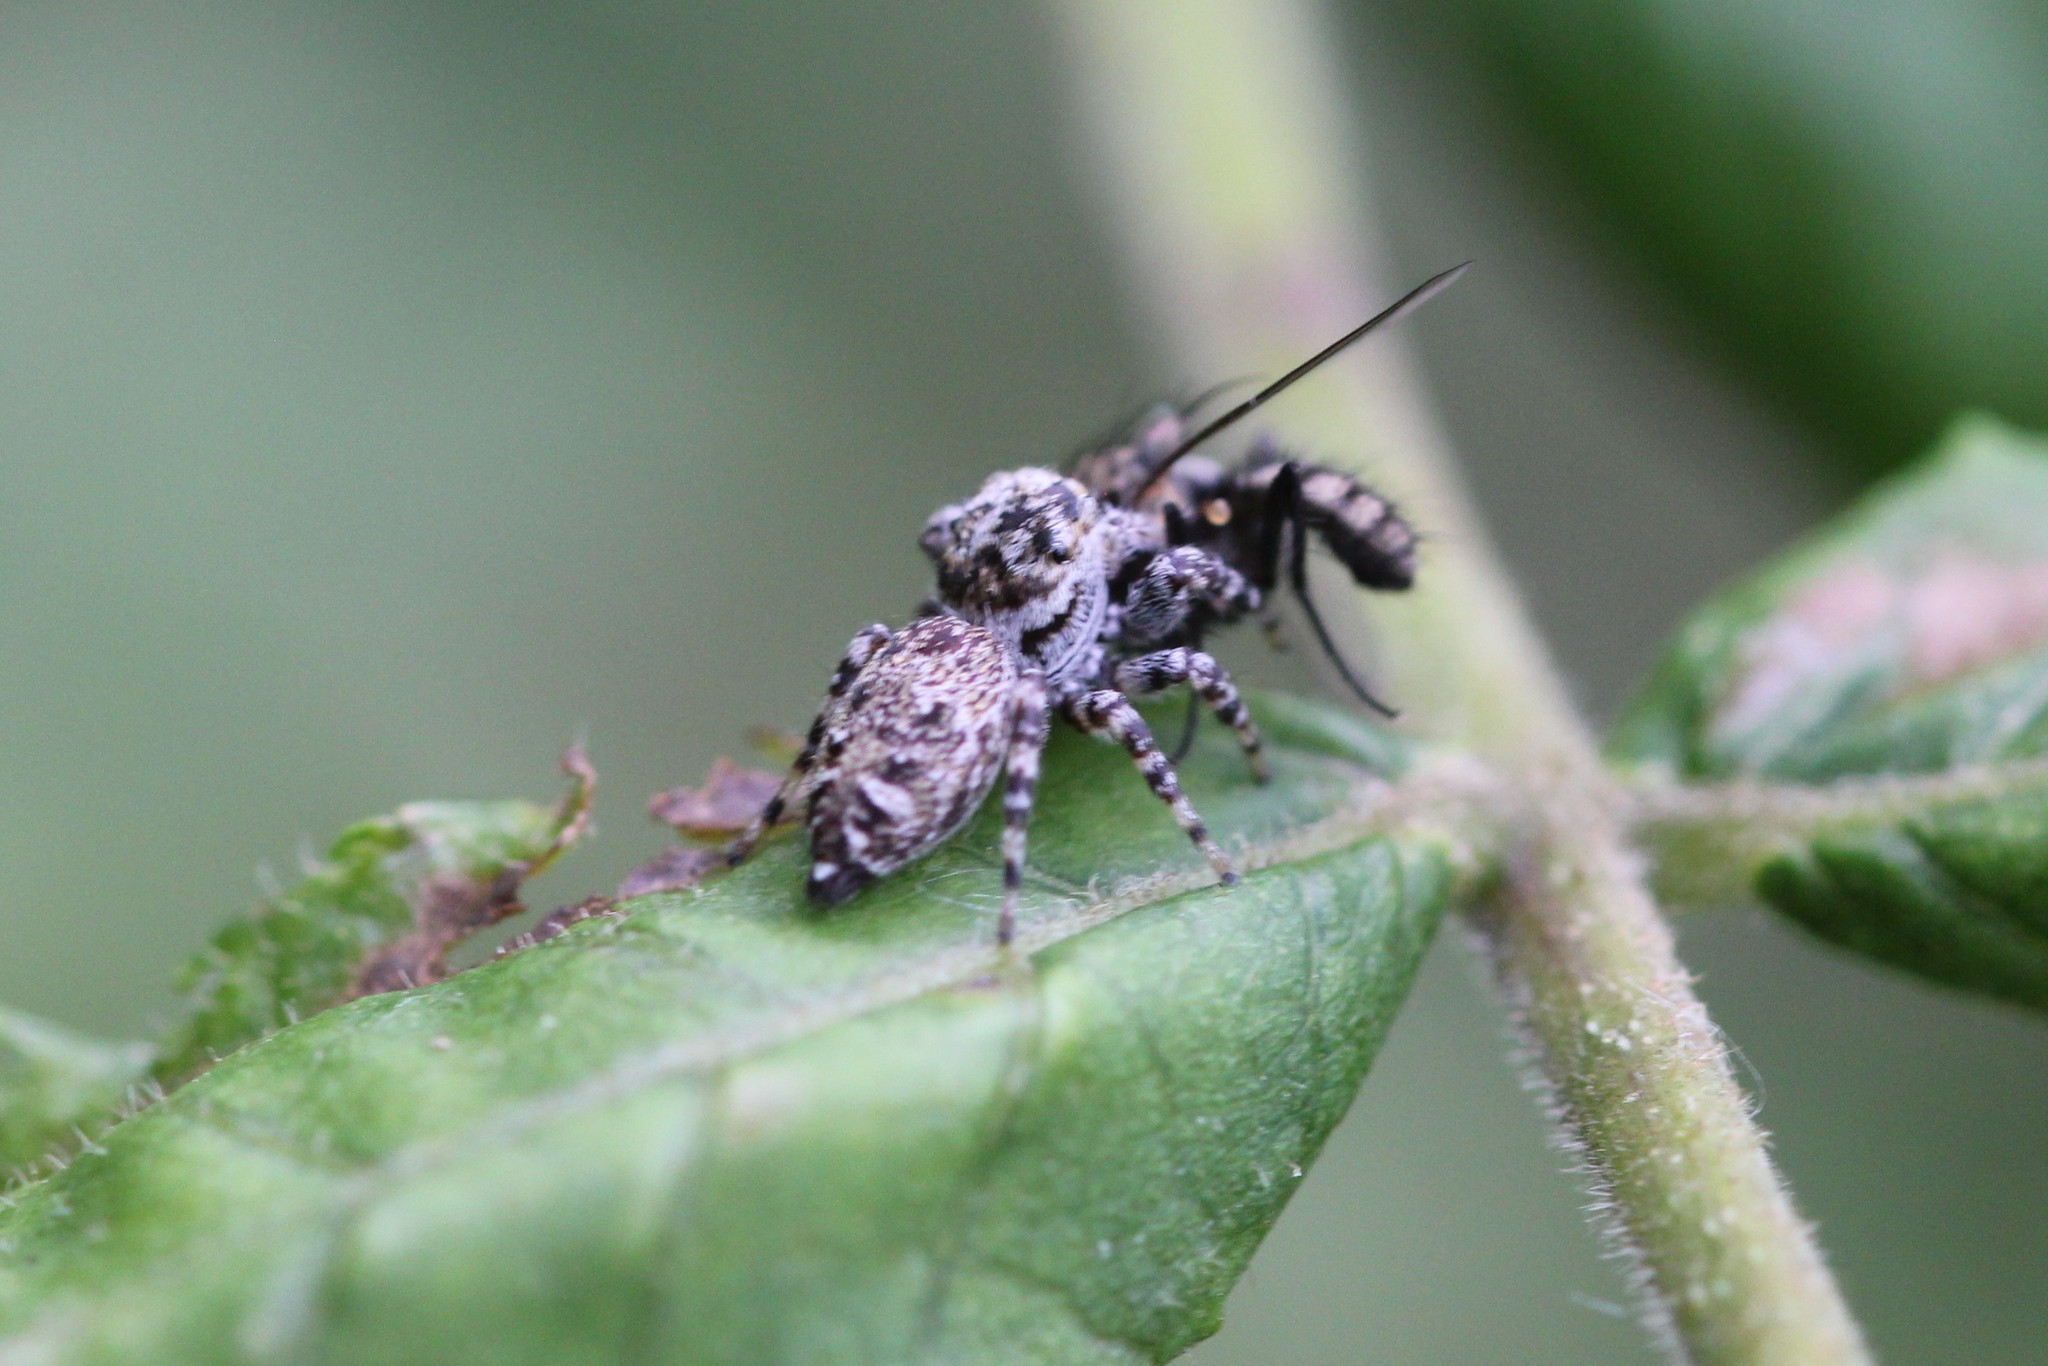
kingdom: Animalia
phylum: Arthropoda
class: Arachnida
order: Araneae
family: Salticidae
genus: Pelegrina
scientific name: Pelegrina galathea
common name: Jumping spiders
